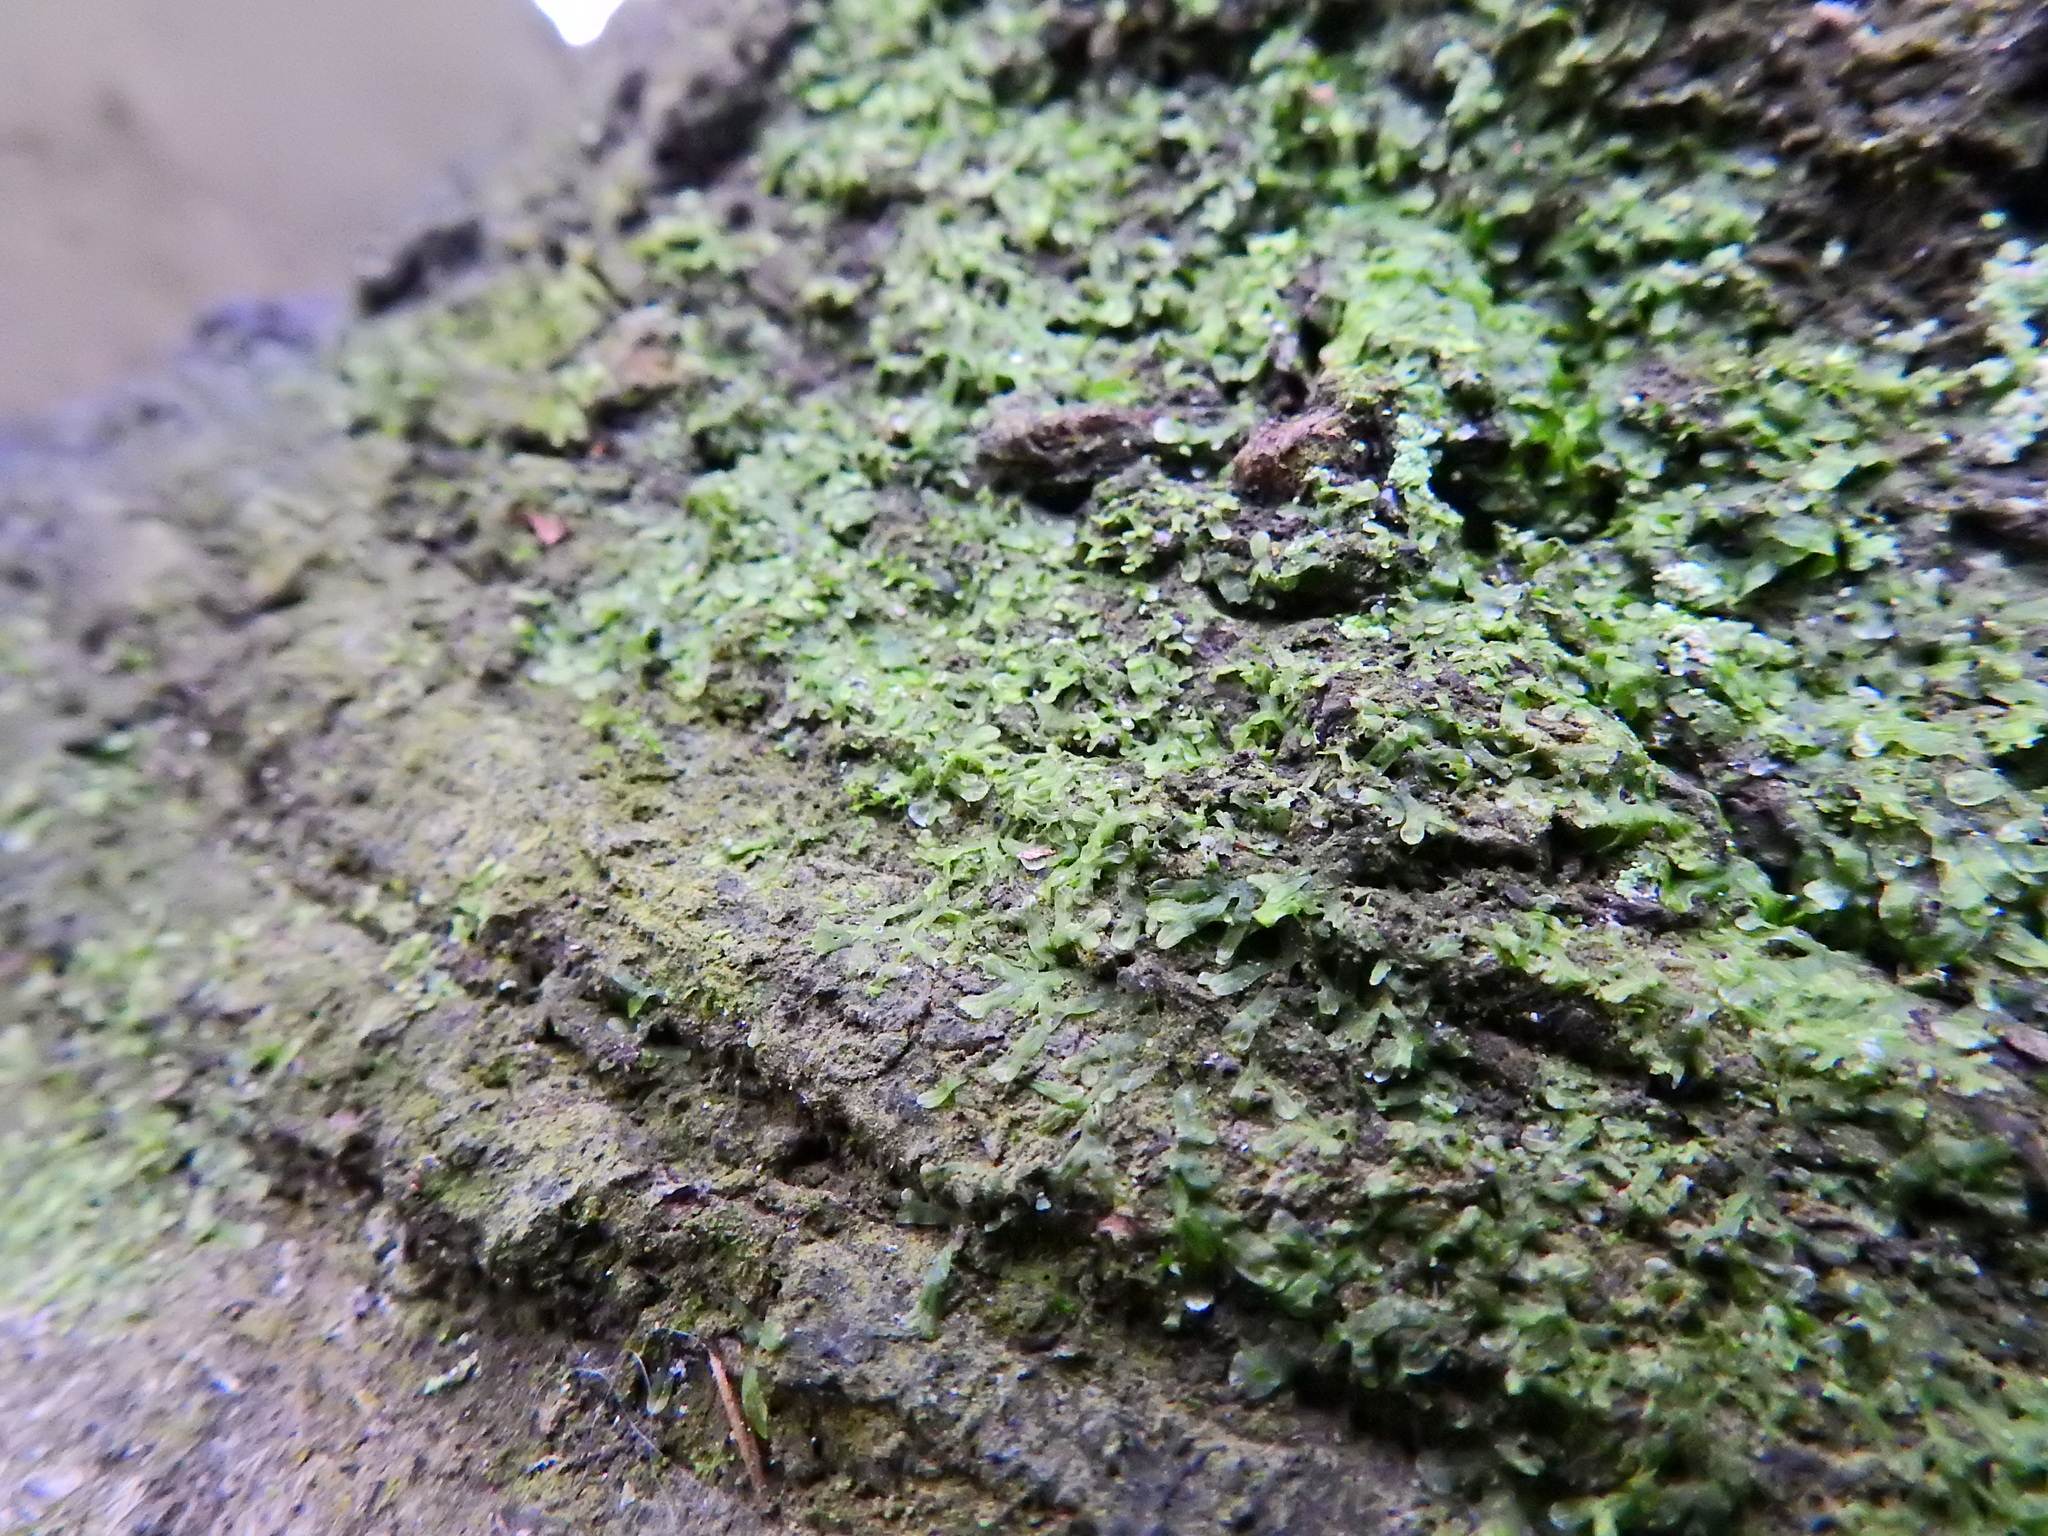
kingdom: Plantae
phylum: Marchantiophyta
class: Jungermanniopsida
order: Metzgeriales
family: Metzgeriaceae
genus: Metzgeria
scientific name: Metzgeria furcata
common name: Forked veilwort
